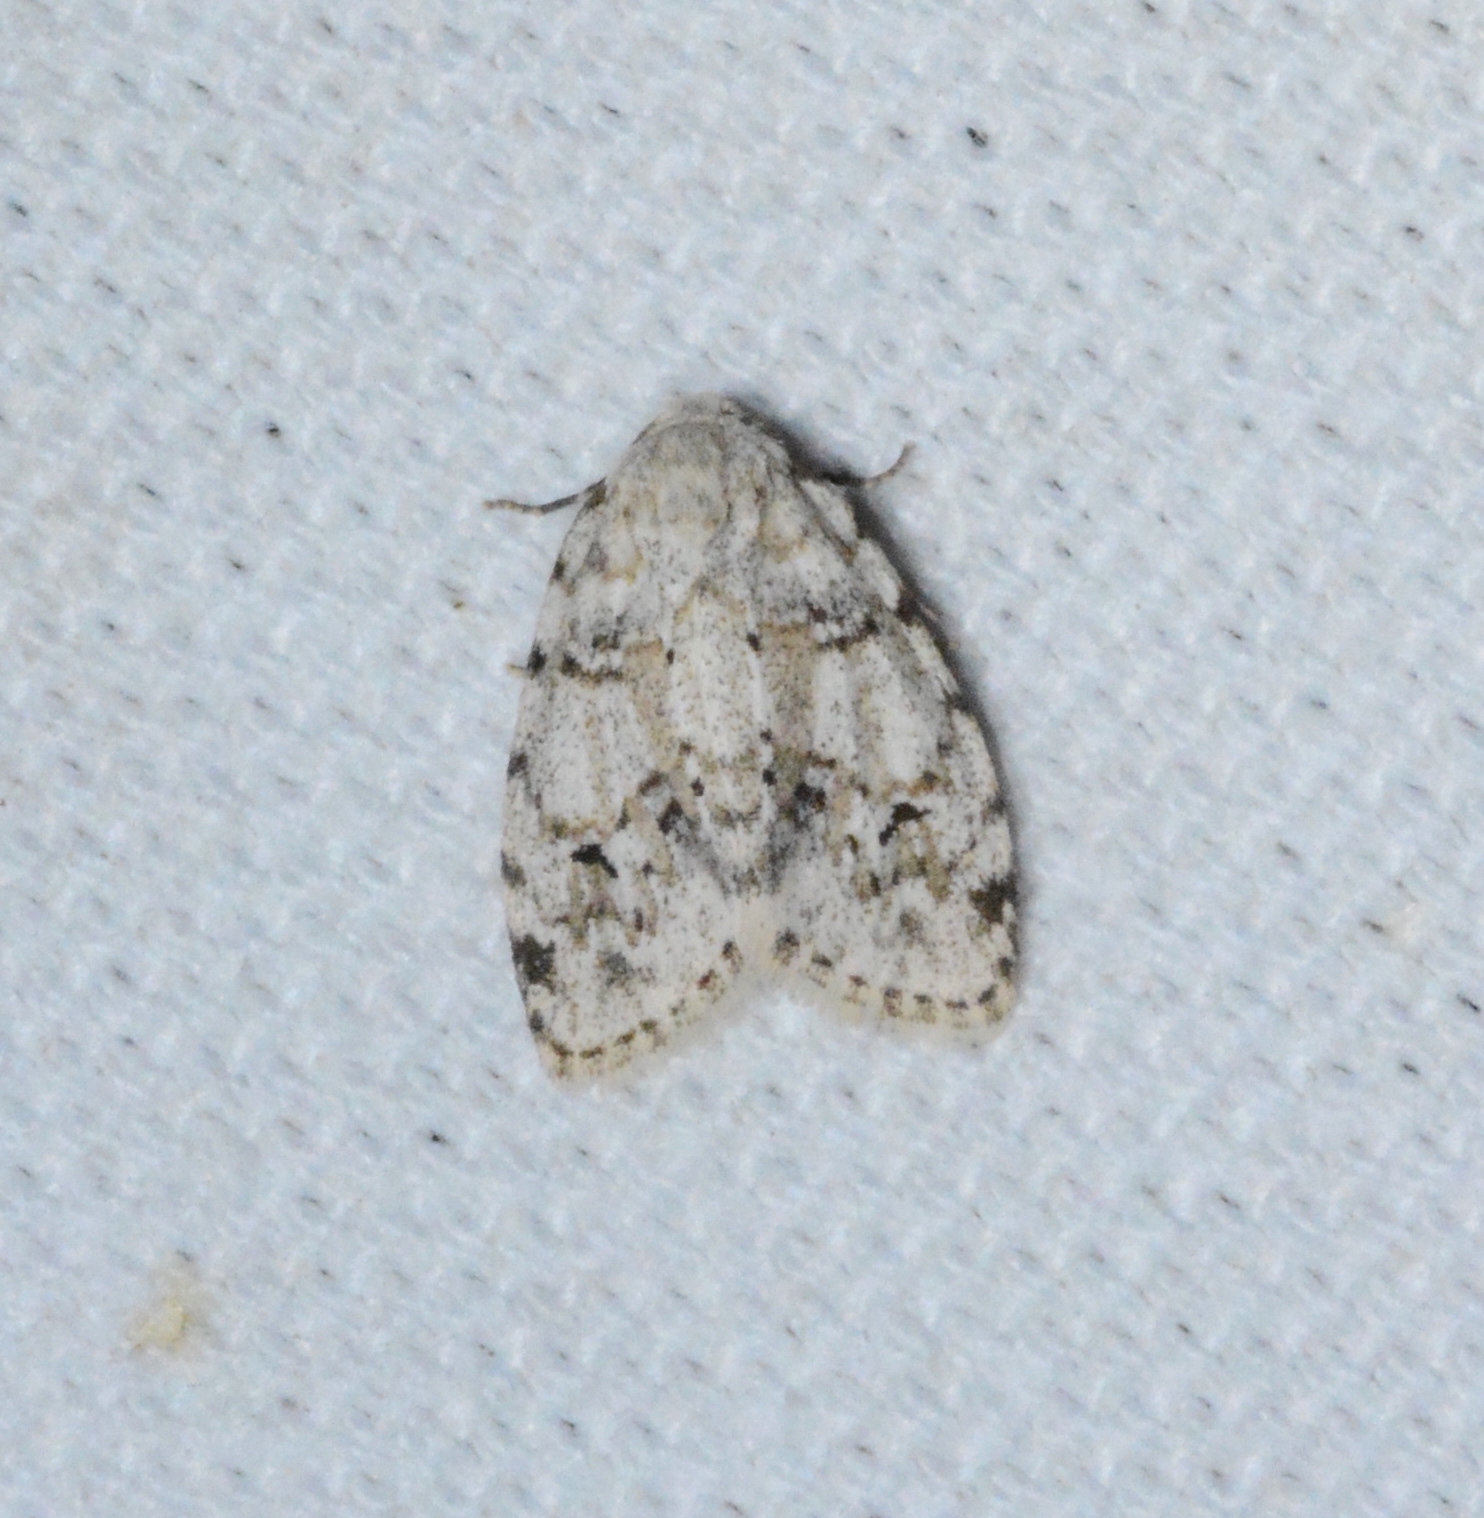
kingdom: Animalia
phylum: Arthropoda
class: Insecta
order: Lepidoptera
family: Erebidae
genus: Clemensia
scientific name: Clemensia albata
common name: Little white lichen moth
